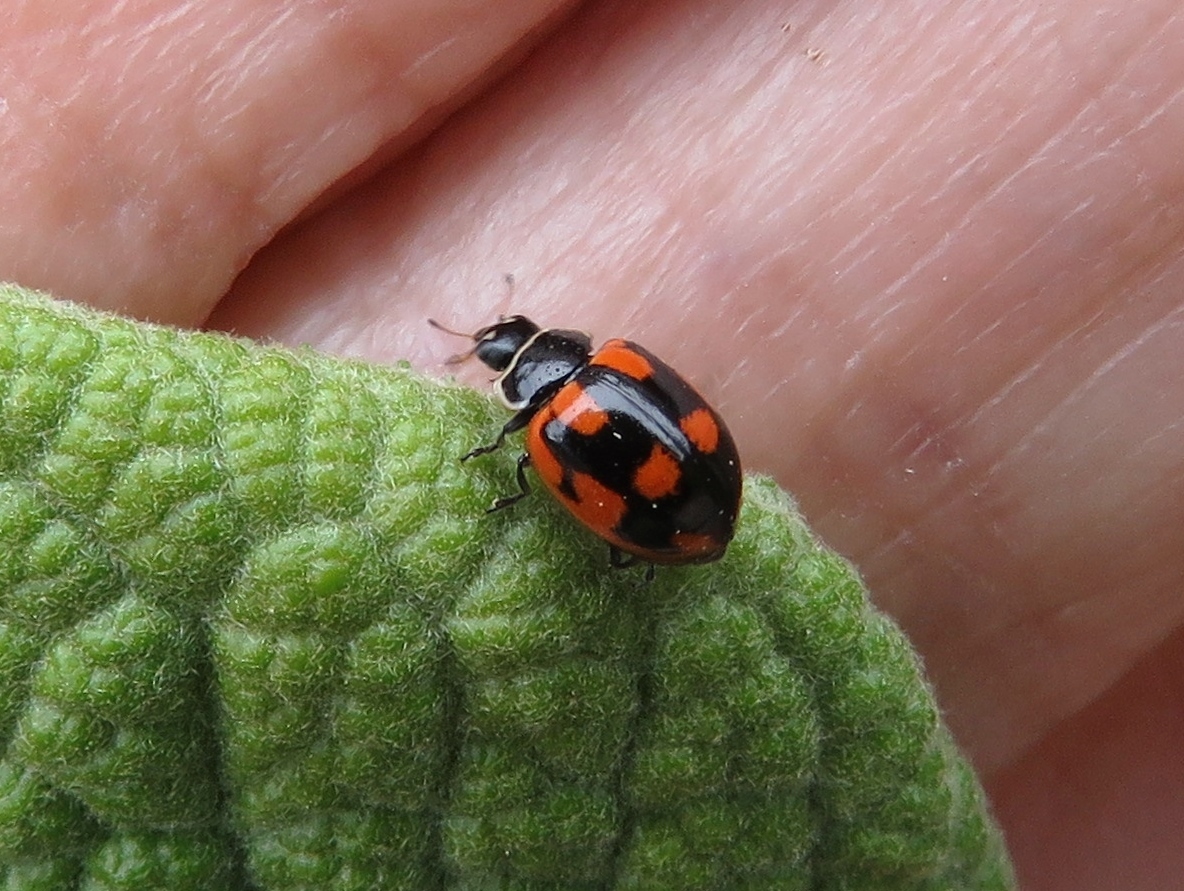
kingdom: Animalia
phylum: Arthropoda
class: Insecta
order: Coleoptera
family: Coccinellidae
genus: Cycloneda
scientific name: Cycloneda
